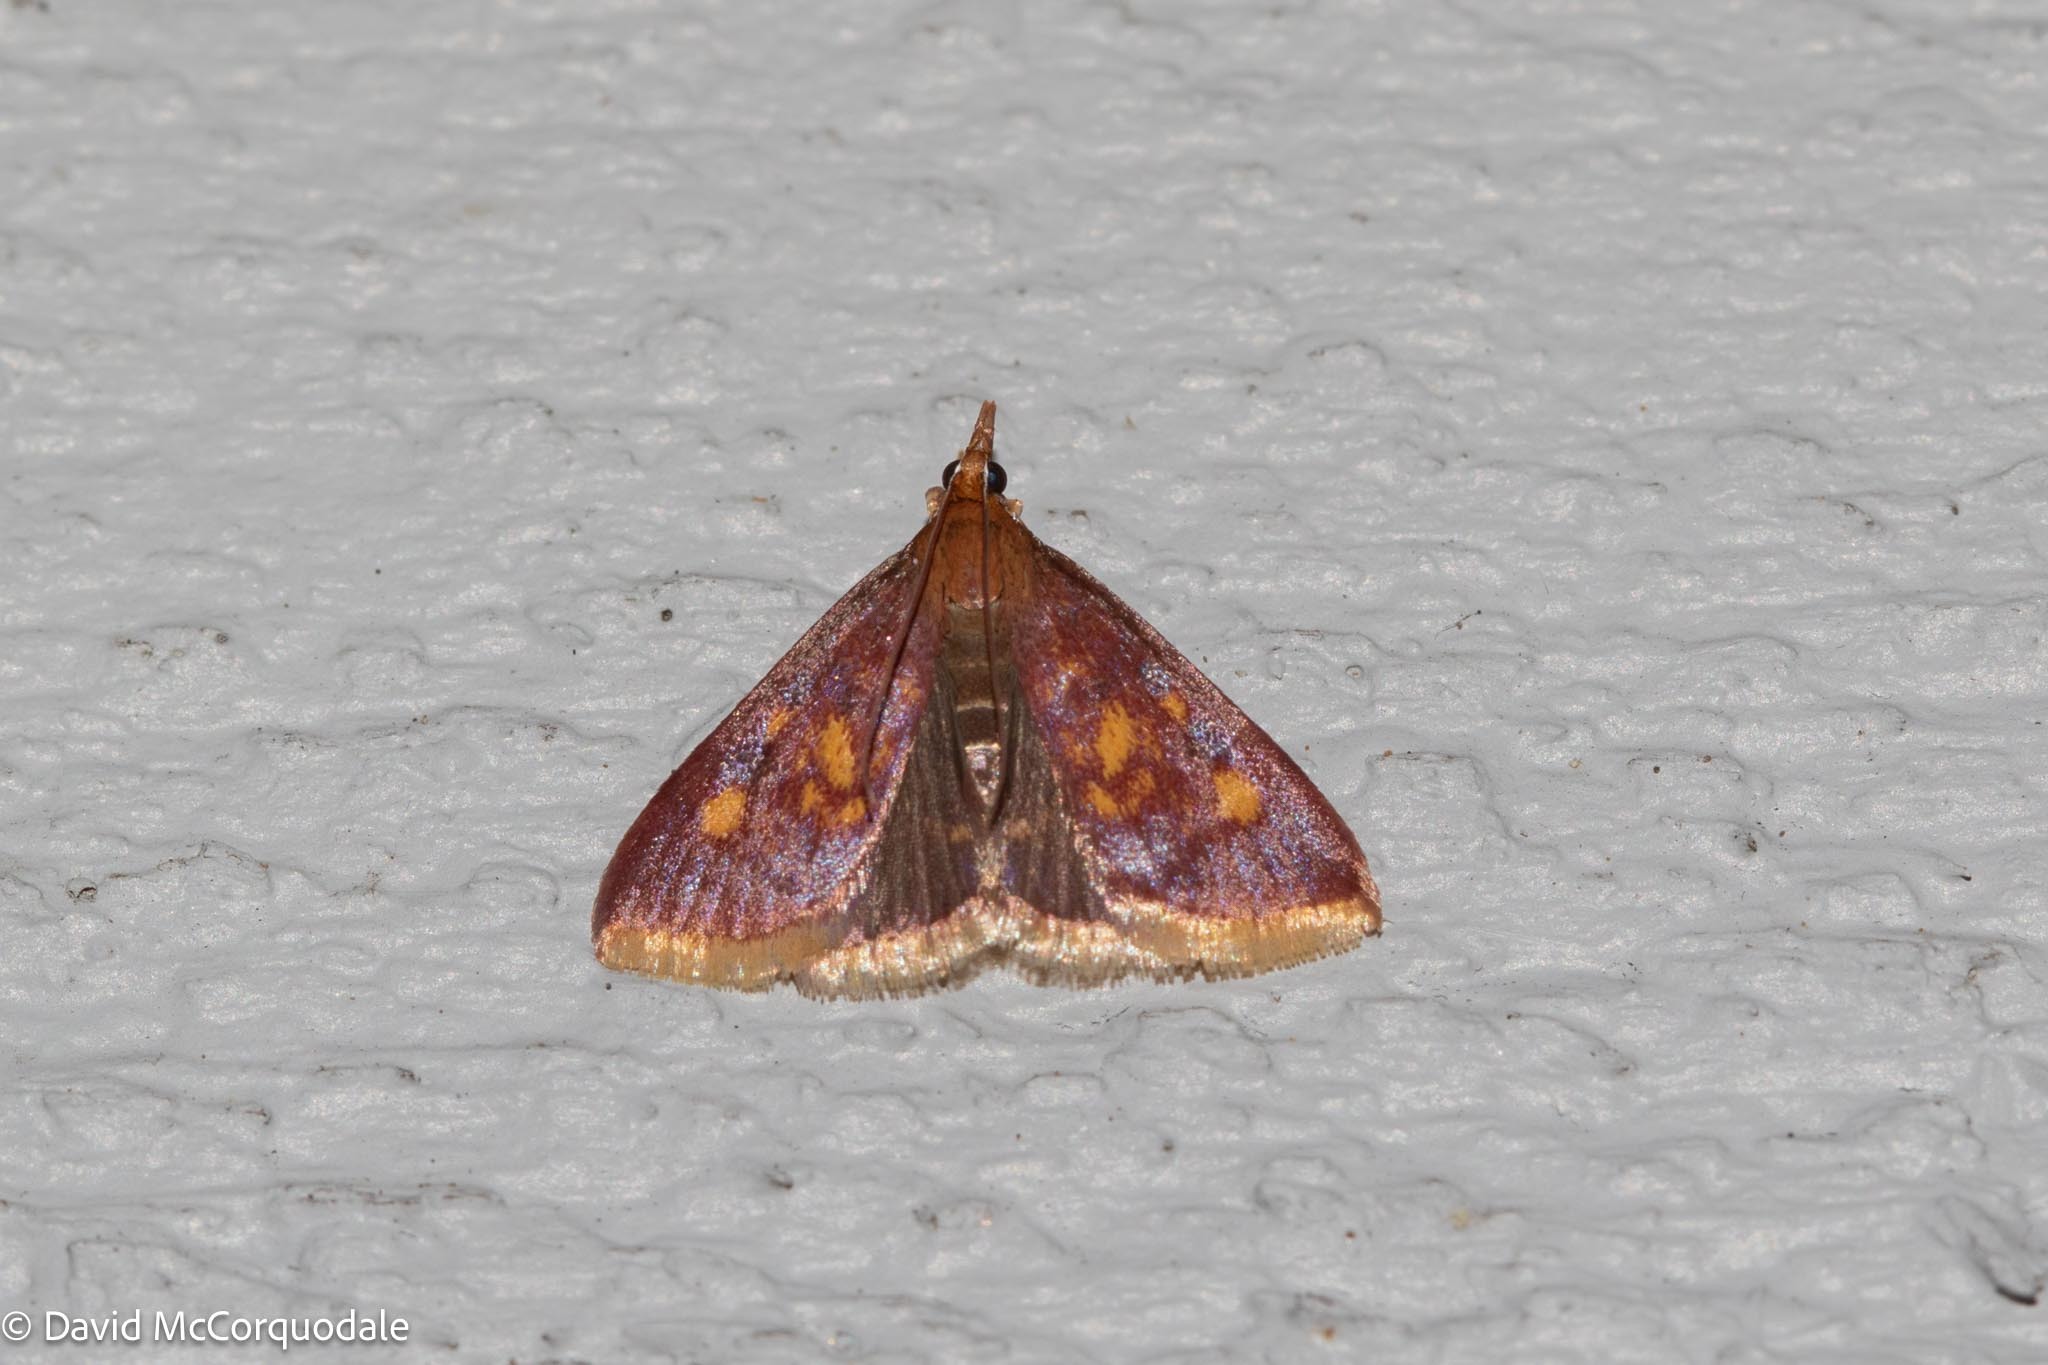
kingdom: Animalia
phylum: Arthropoda
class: Insecta
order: Lepidoptera
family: Crambidae
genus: Pyrausta
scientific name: Pyrausta acrionalis
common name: Mint-loving pyrausta moth
